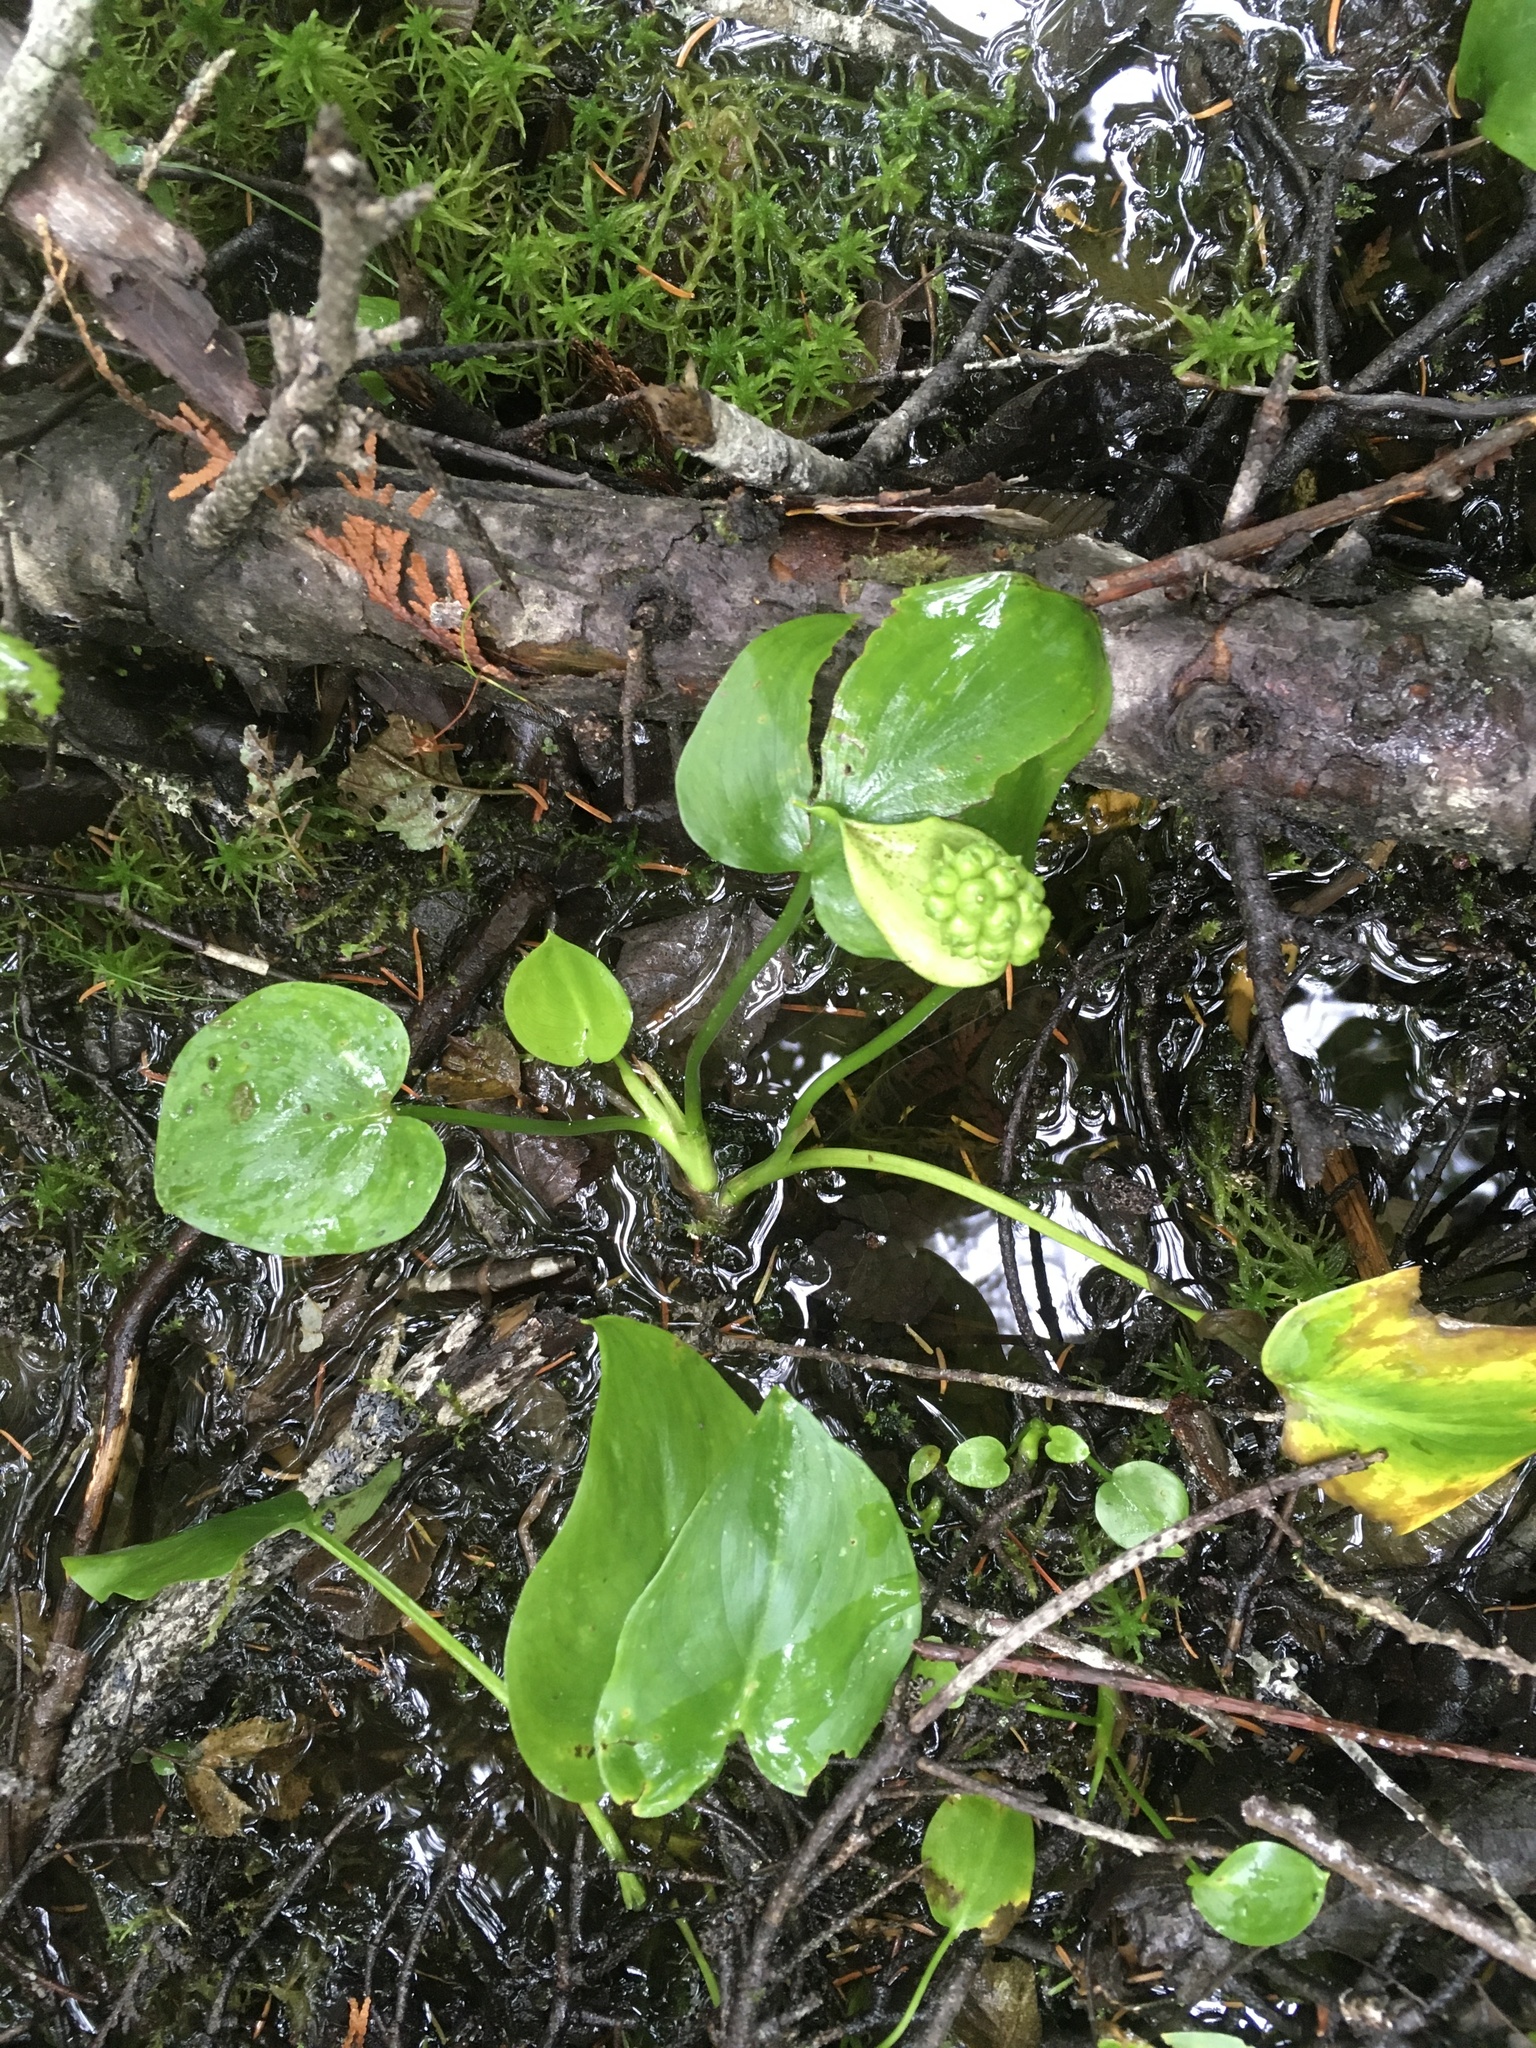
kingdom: Plantae
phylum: Tracheophyta
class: Liliopsida
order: Alismatales
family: Araceae
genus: Calla
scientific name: Calla palustris
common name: Bog arum
